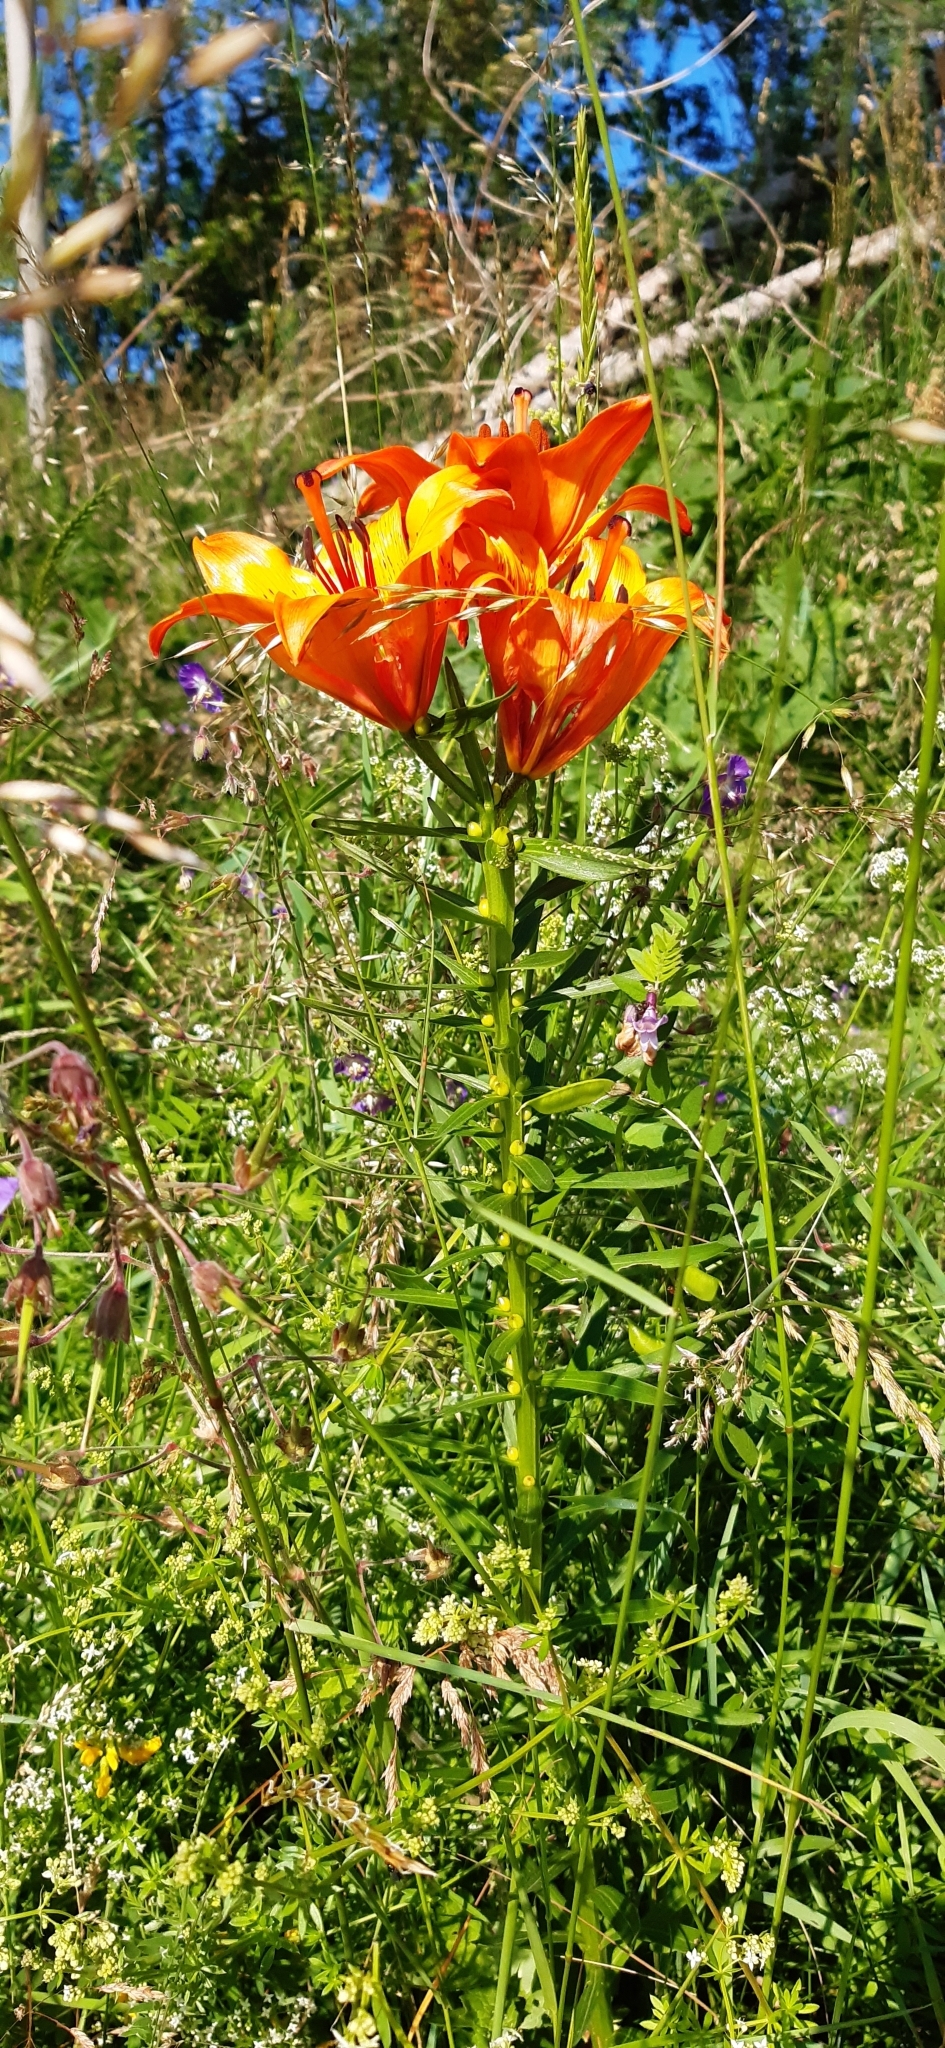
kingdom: Plantae
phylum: Tracheophyta
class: Liliopsida
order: Liliales
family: Liliaceae
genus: Lilium
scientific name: Lilium bulbiferum
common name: Orange lily
